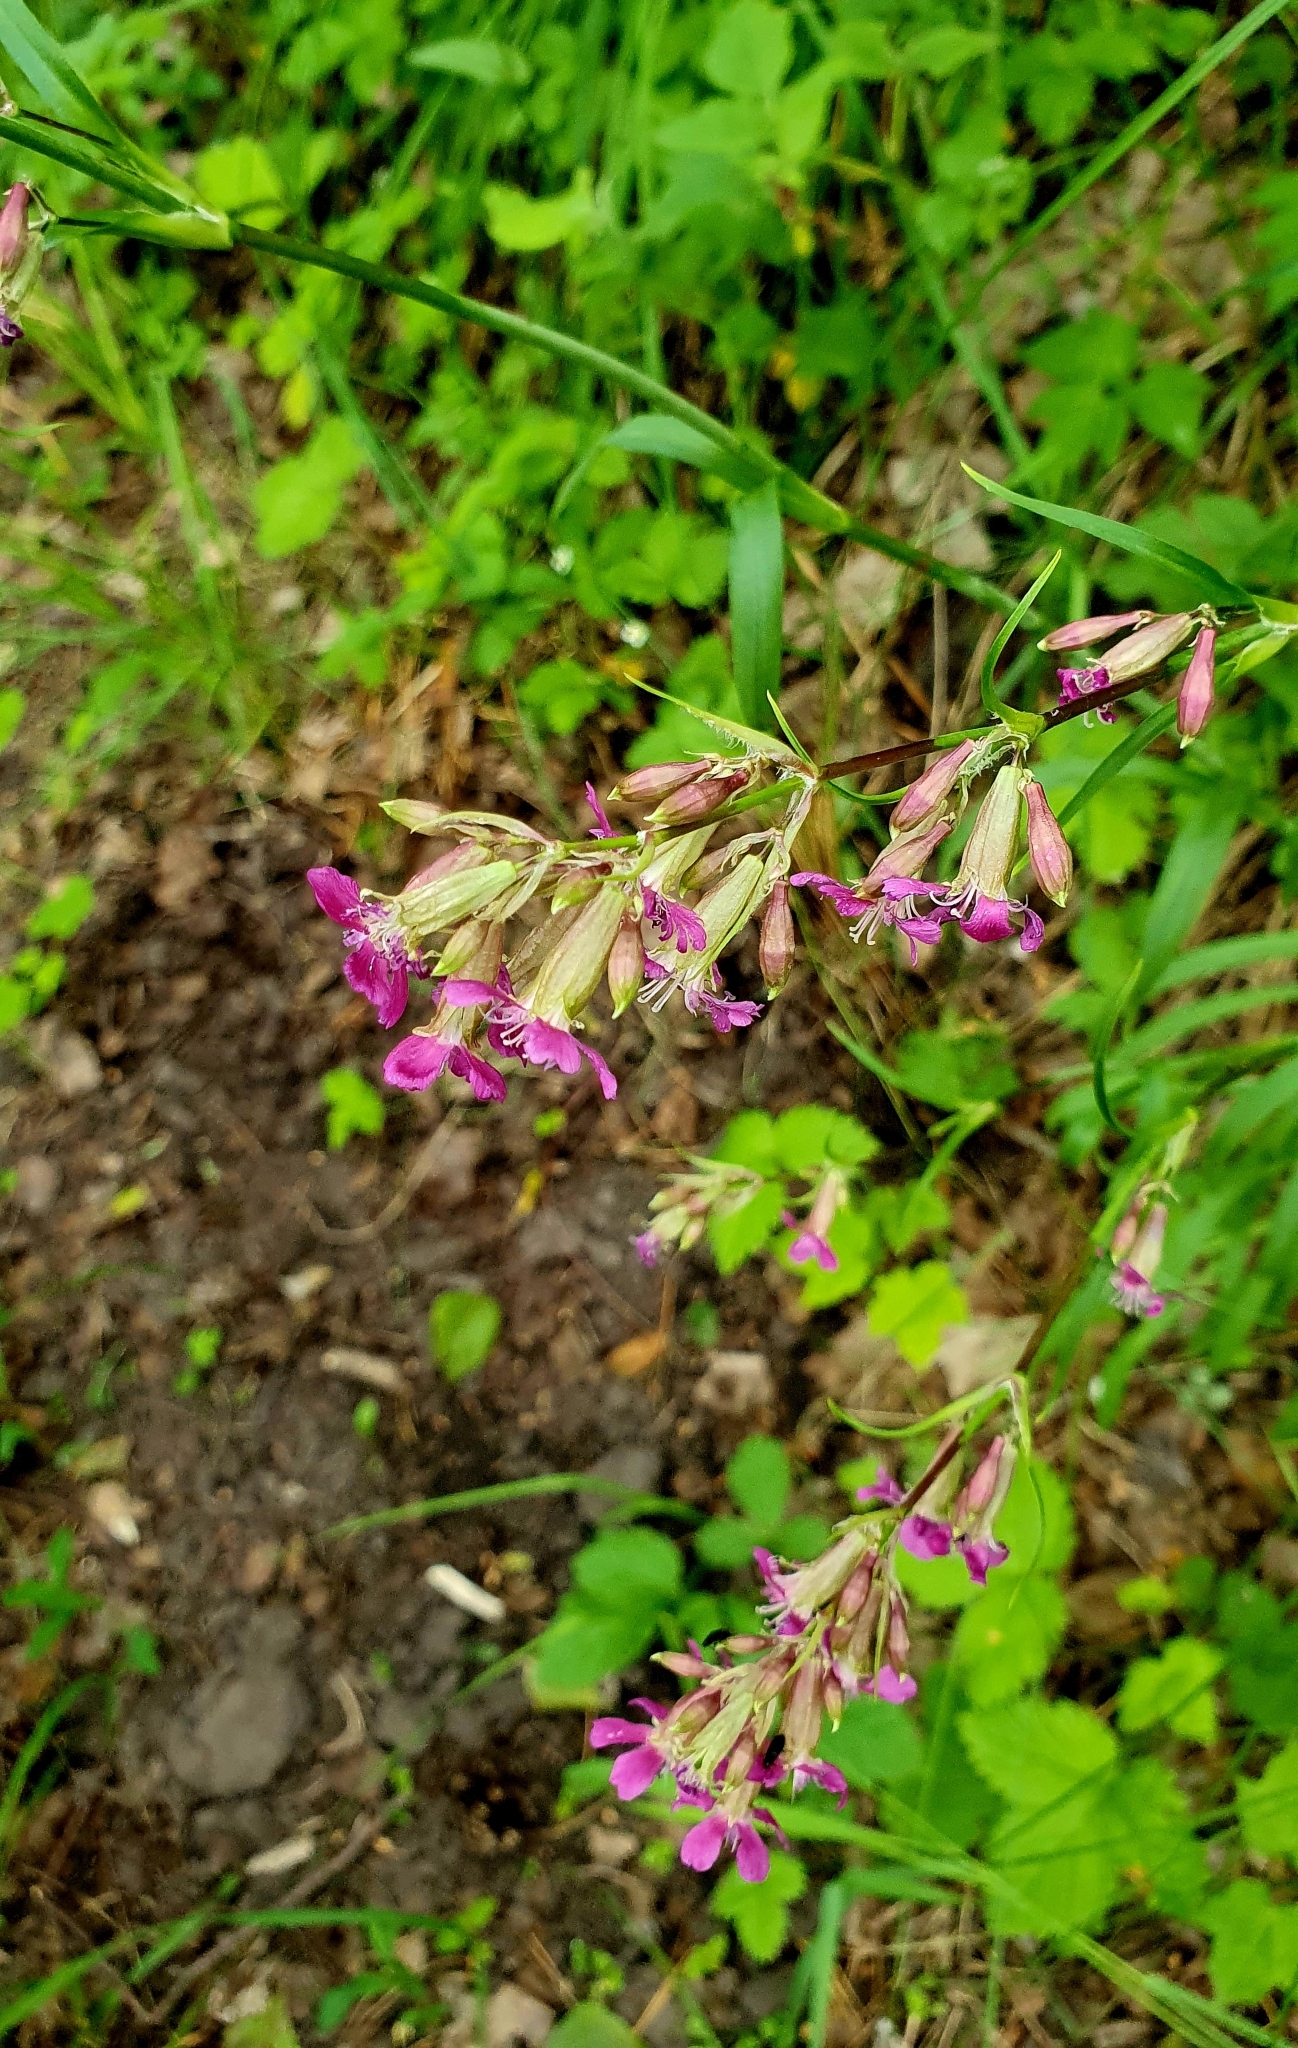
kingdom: Plantae
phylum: Tracheophyta
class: Magnoliopsida
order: Caryophyllales
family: Caryophyllaceae
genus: Viscaria
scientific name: Viscaria vulgaris
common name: Clammy campion
